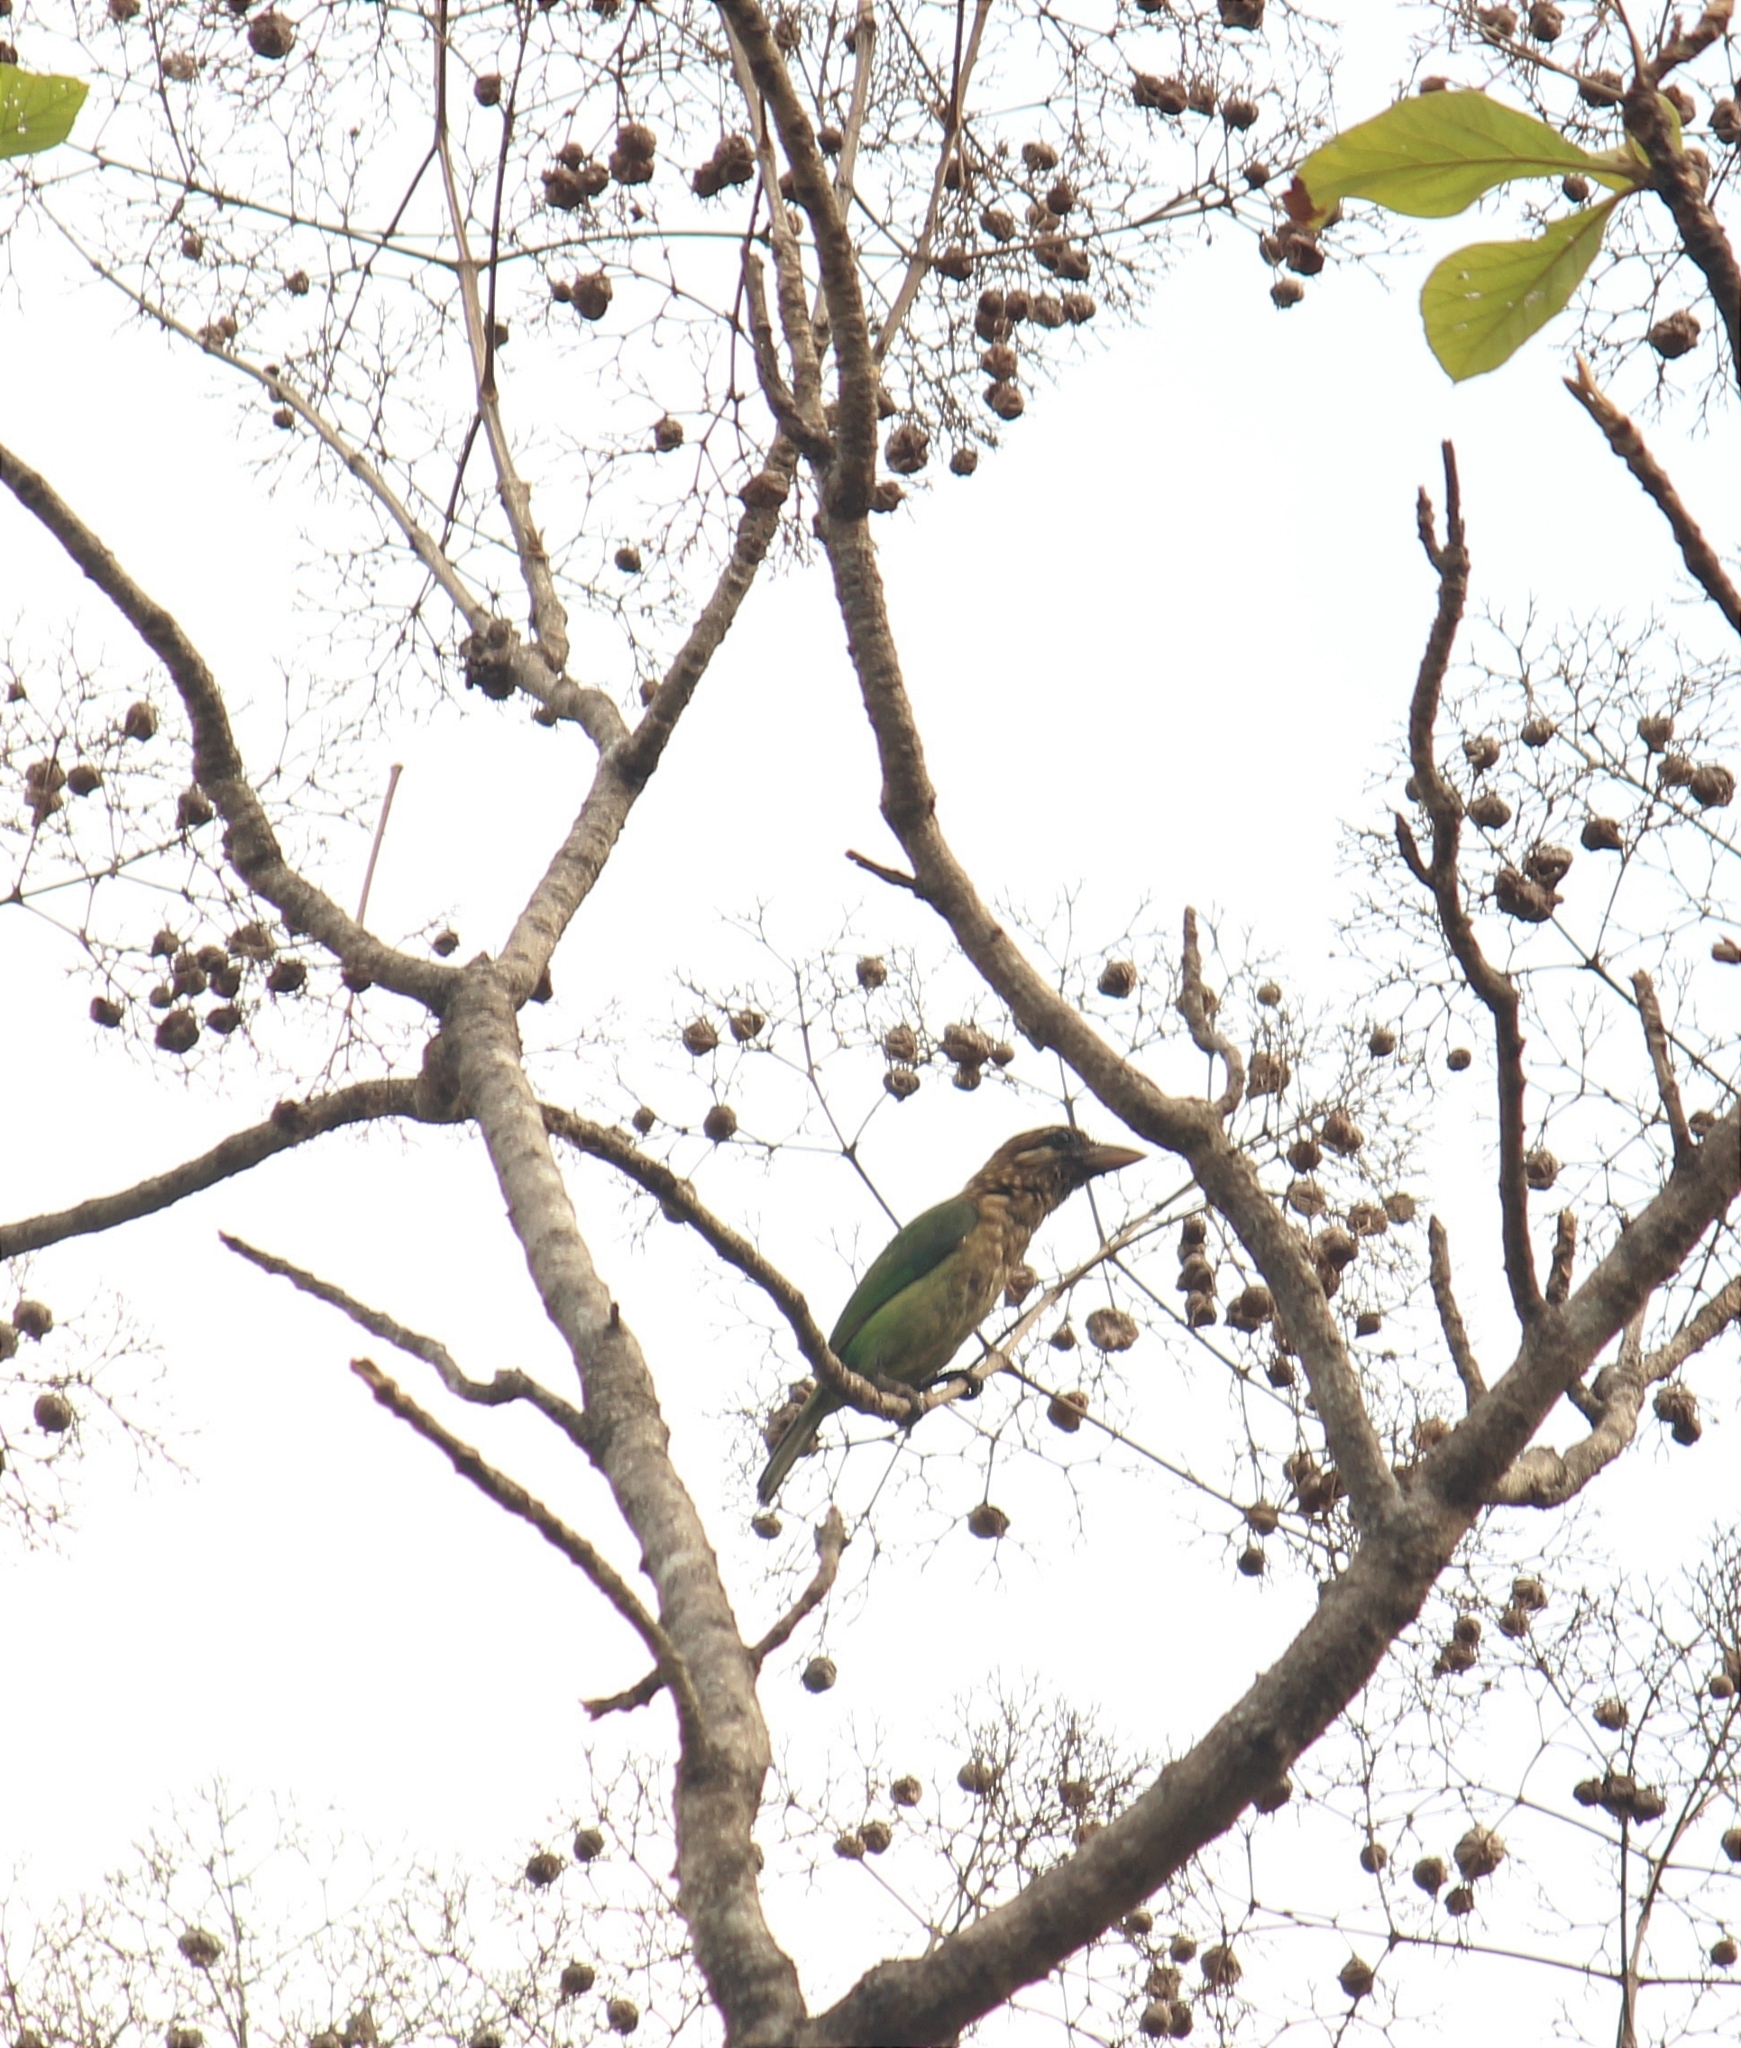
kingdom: Animalia
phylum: Chordata
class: Aves
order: Piciformes
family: Megalaimidae
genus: Psilopogon
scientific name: Psilopogon viridis
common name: White-cheeked barbet
